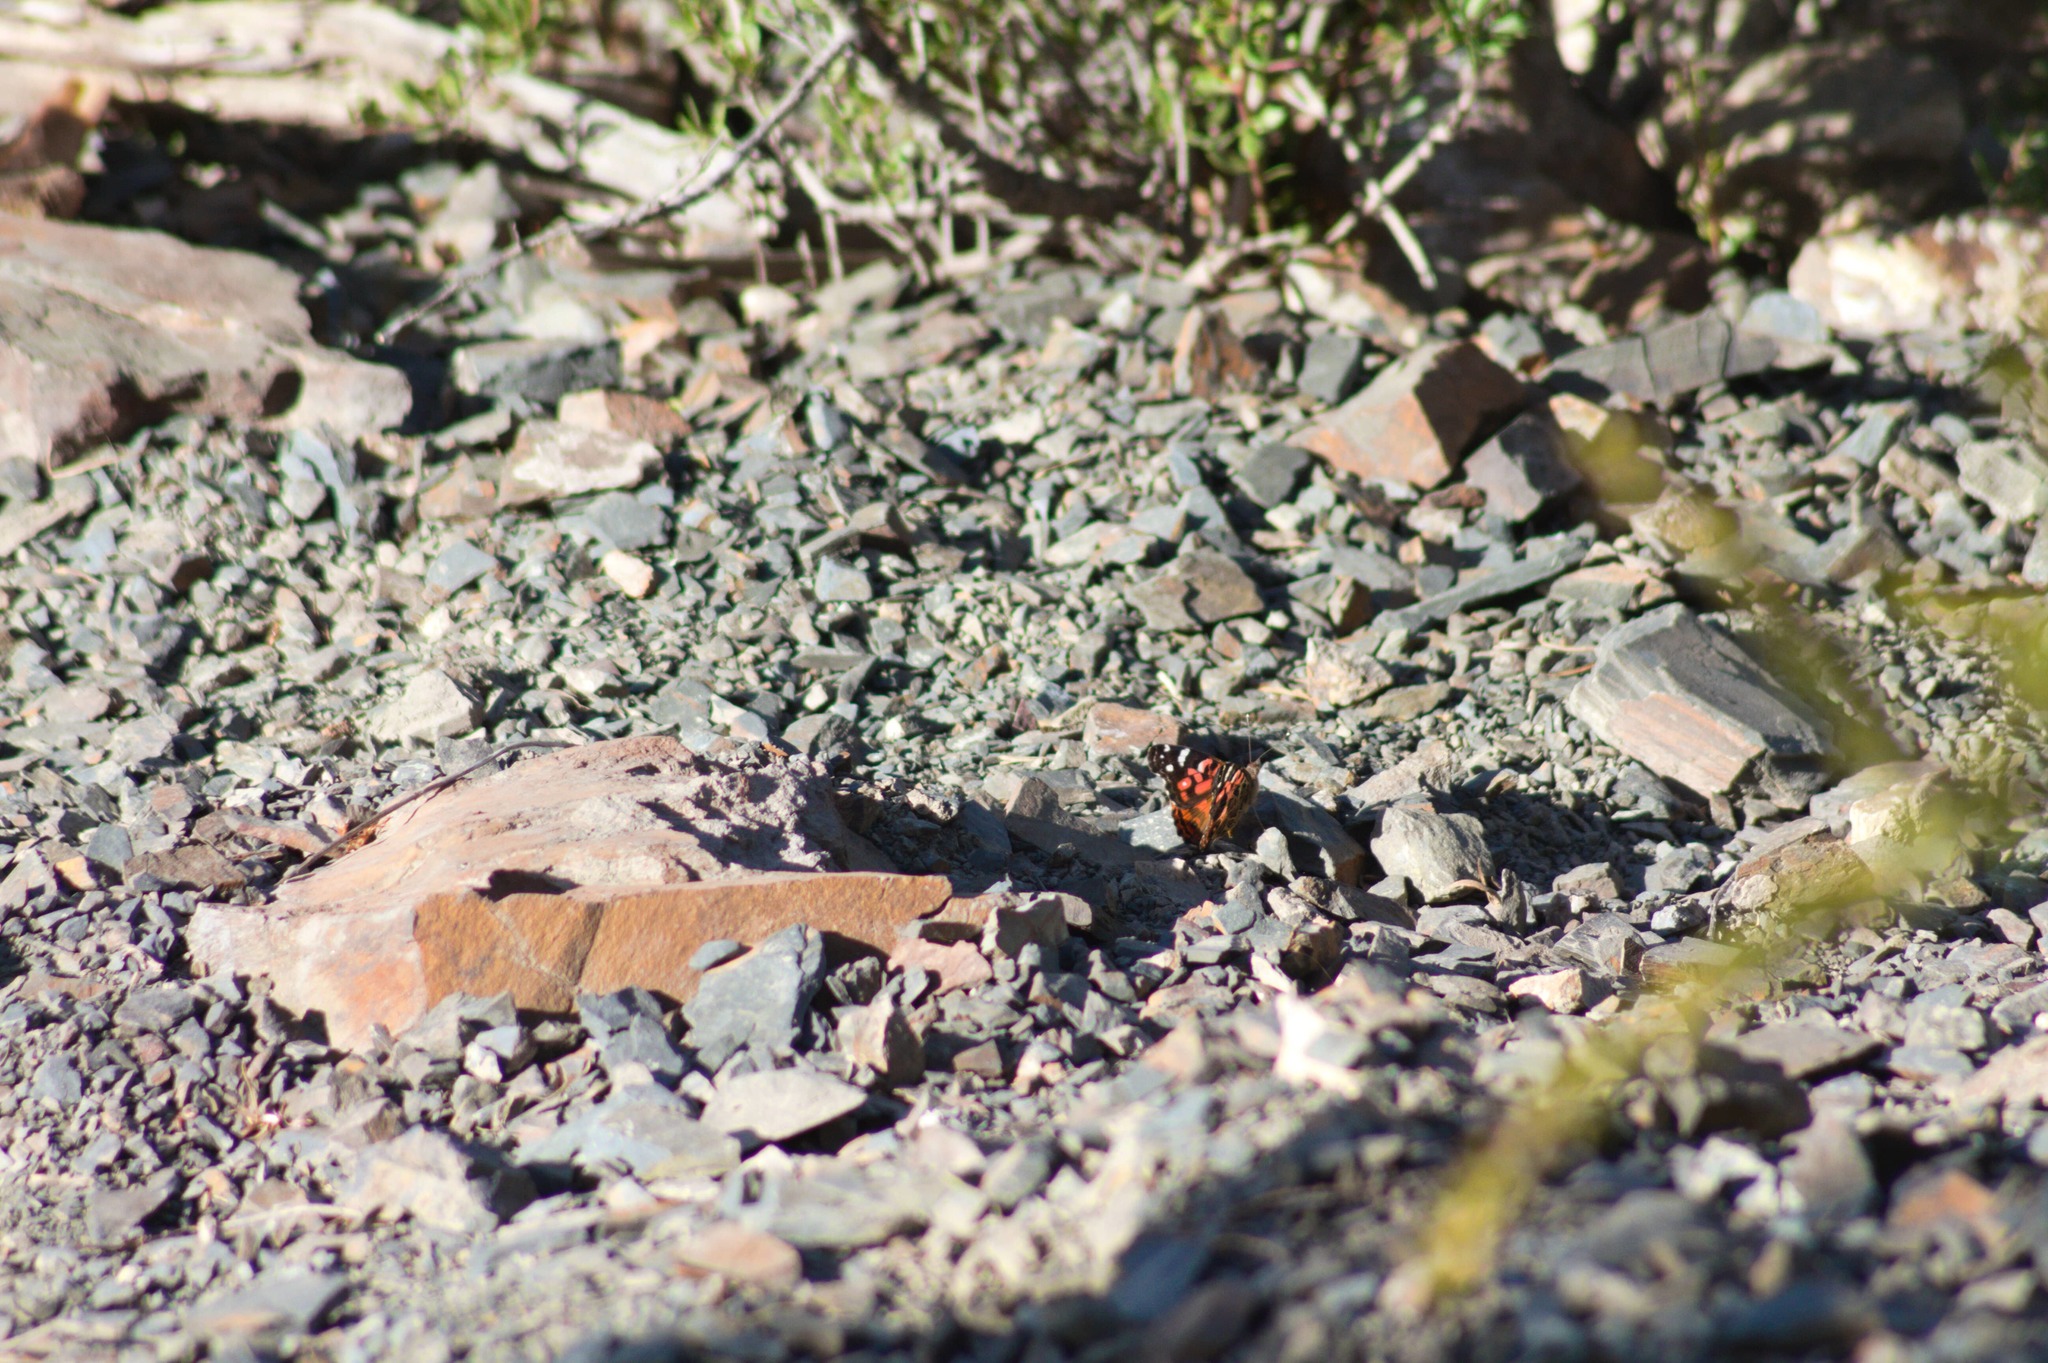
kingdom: Animalia
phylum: Arthropoda
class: Insecta
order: Lepidoptera
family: Nymphalidae
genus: Vanessa
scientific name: Vanessa braziliensis
